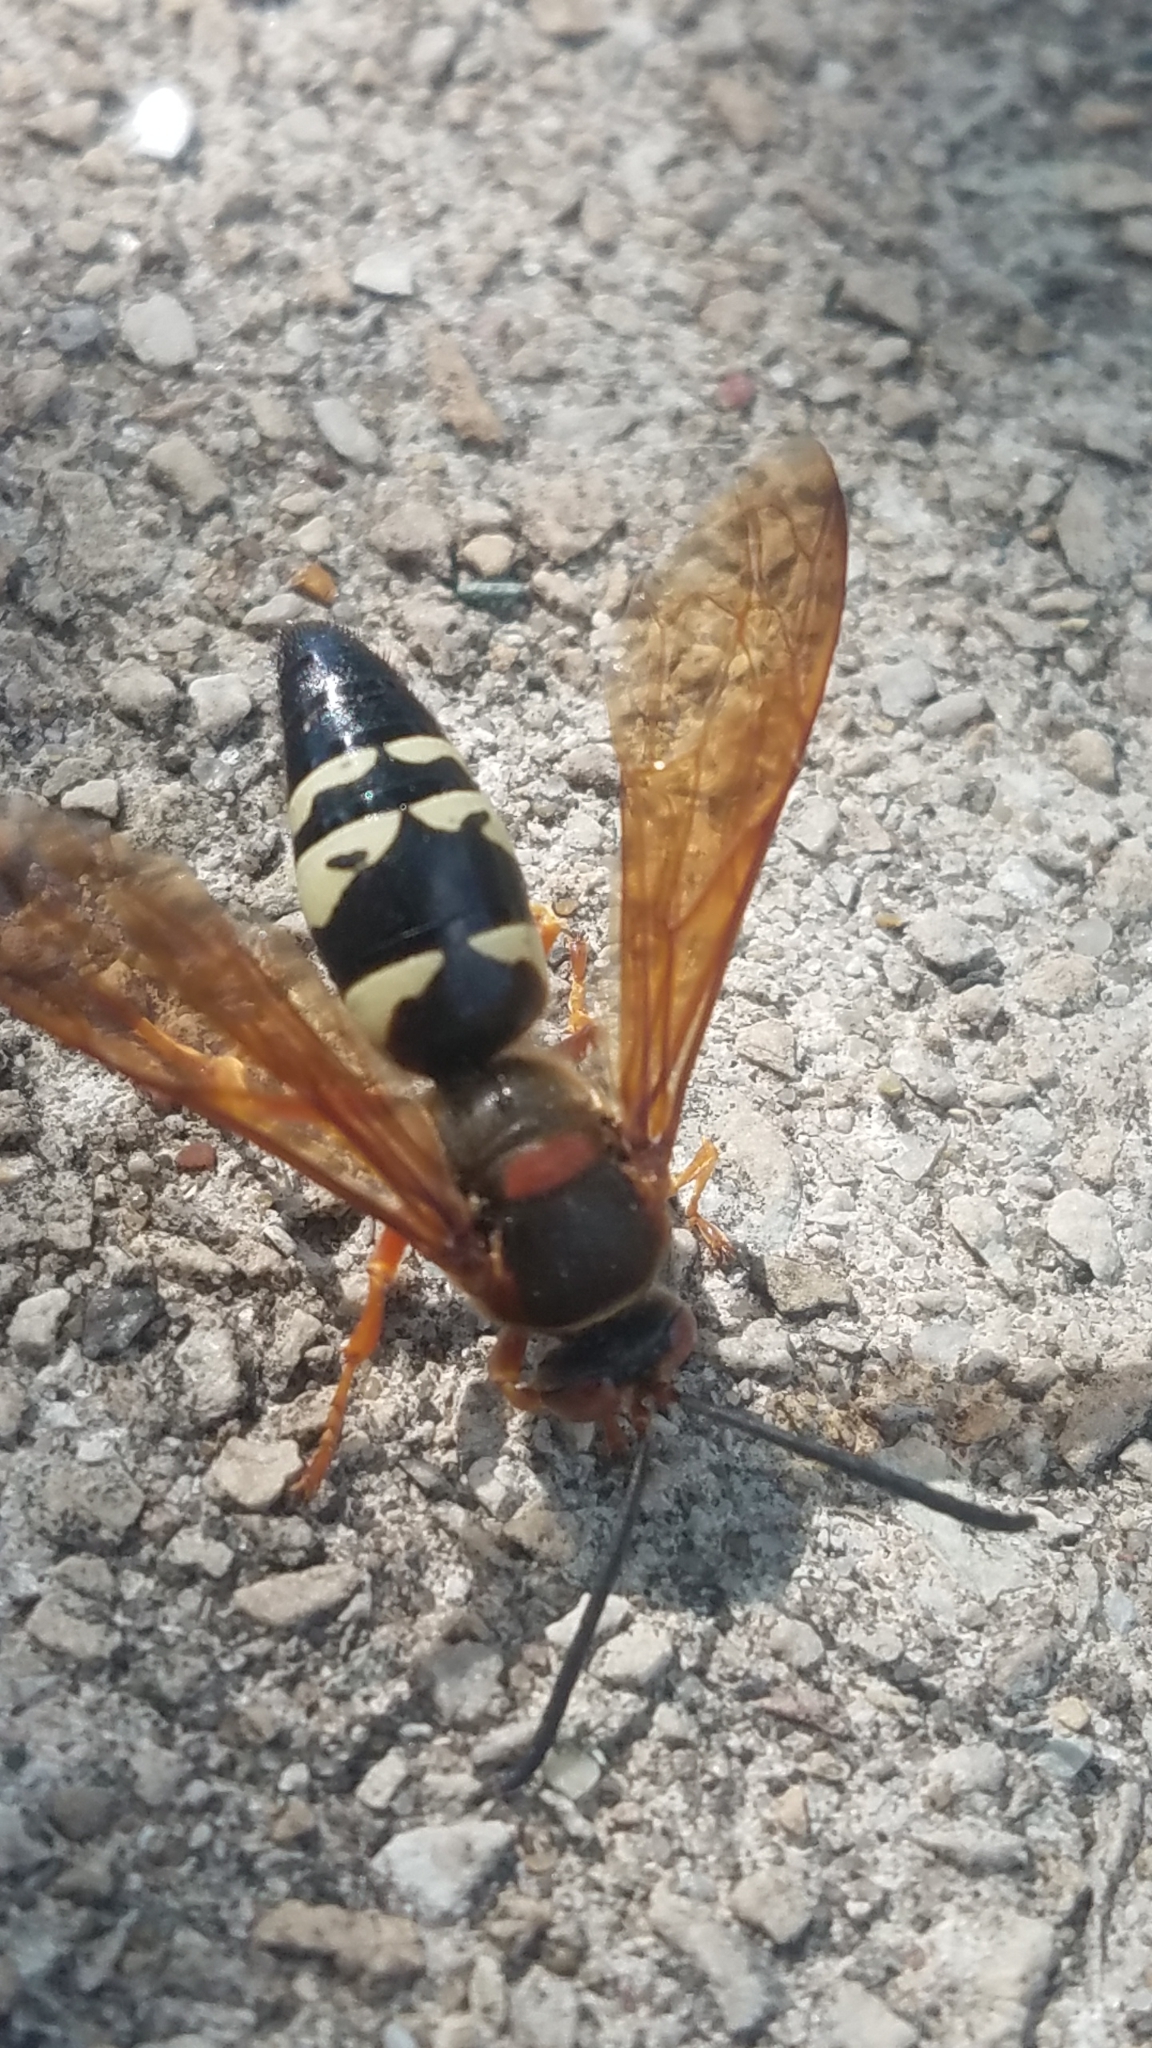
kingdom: Animalia
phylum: Arthropoda
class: Insecta
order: Hymenoptera
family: Crabronidae
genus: Sphecius
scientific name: Sphecius speciosus
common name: Cicada killer
